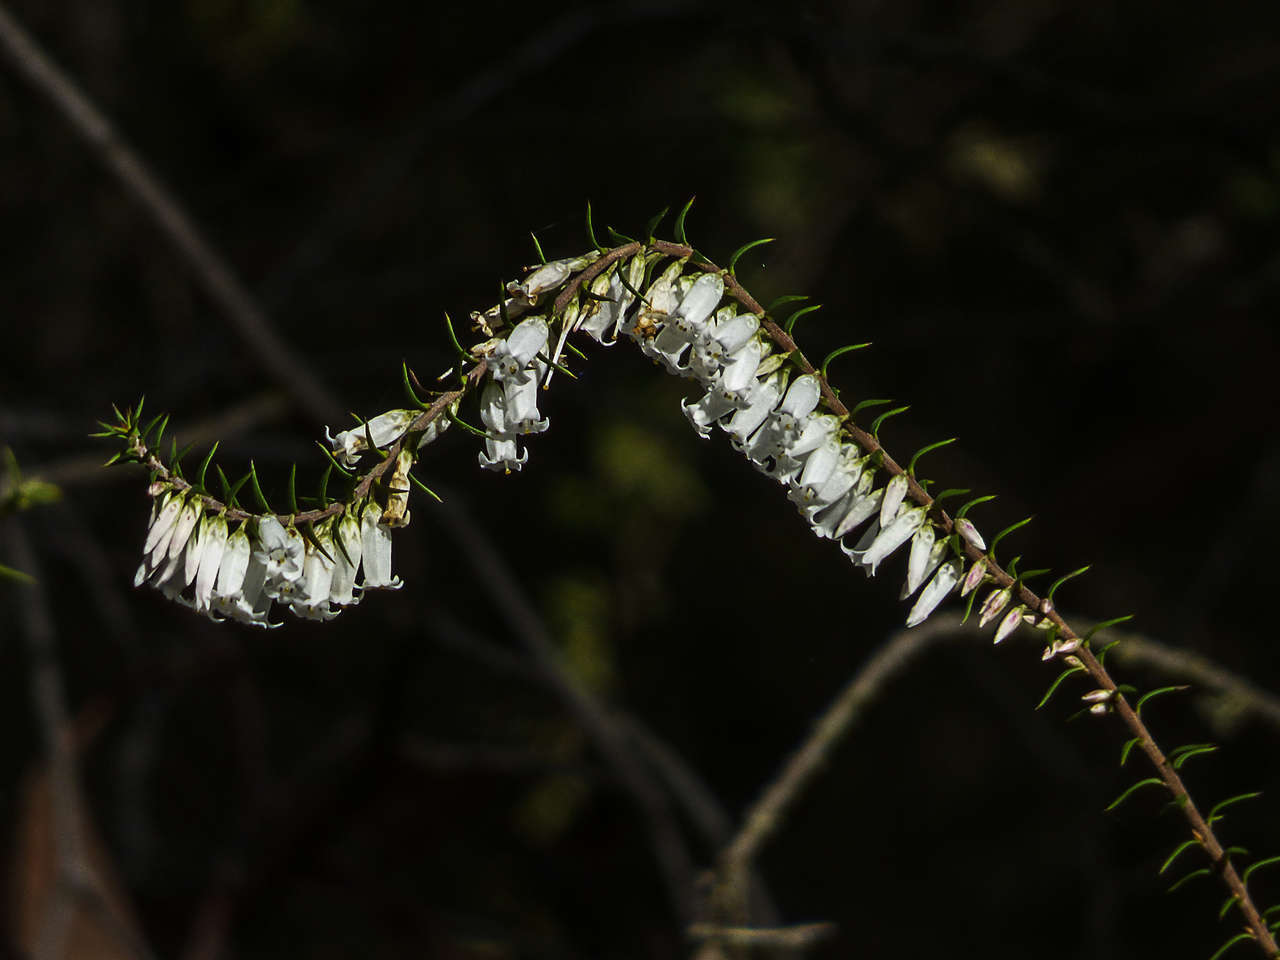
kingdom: Plantae
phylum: Tracheophyta
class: Magnoliopsida
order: Ericales
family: Ericaceae
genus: Epacris
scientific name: Epacris impressa
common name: Common-heath
